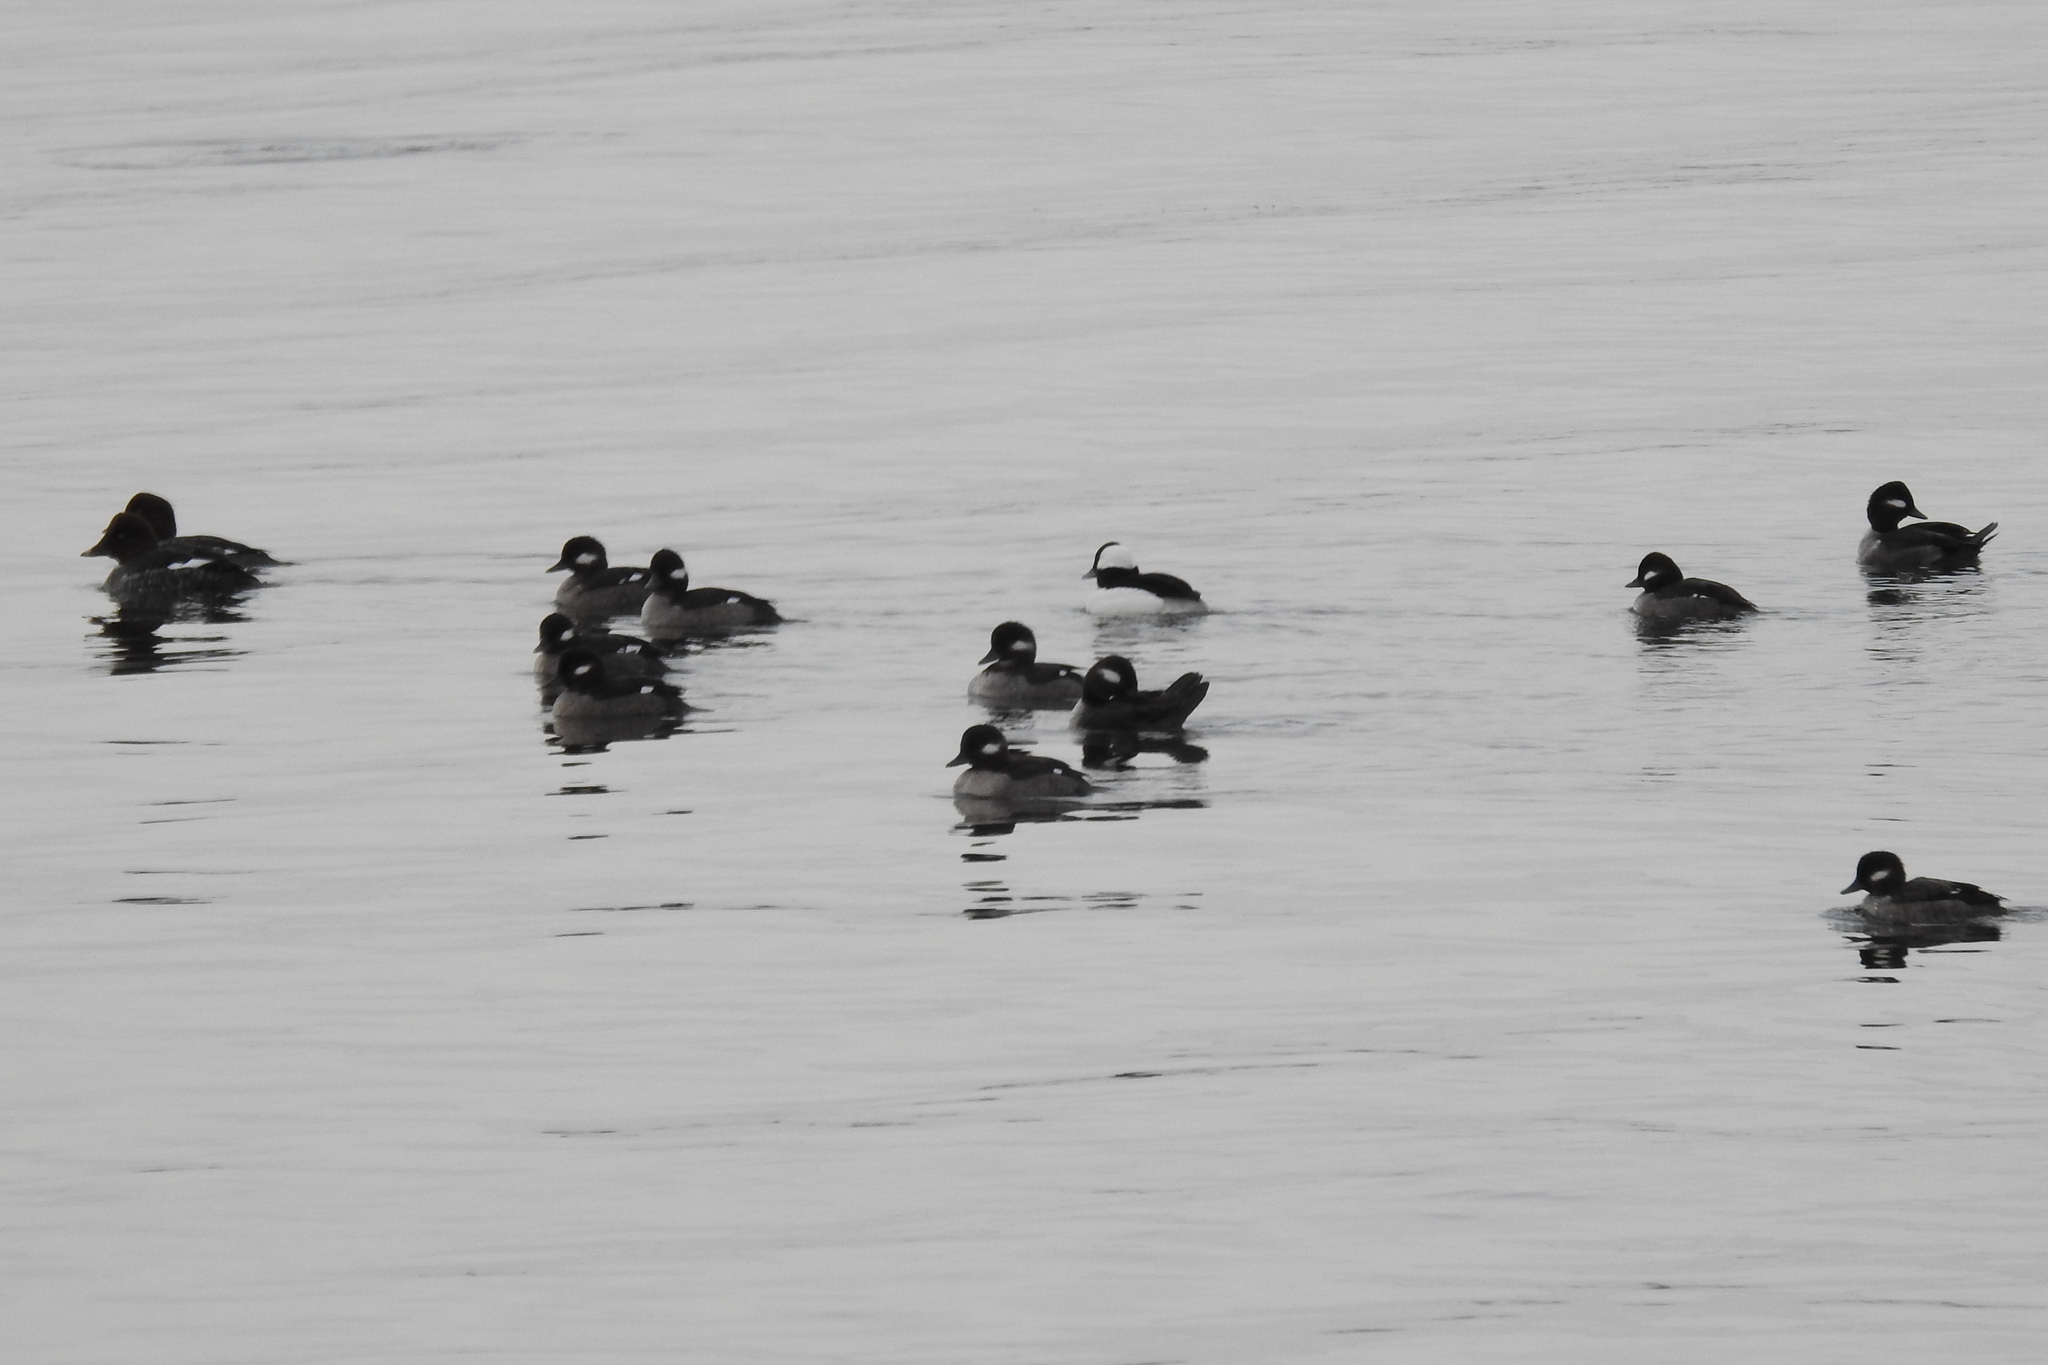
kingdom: Animalia
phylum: Chordata
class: Aves
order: Anseriformes
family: Anatidae
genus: Bucephala
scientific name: Bucephala albeola
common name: Bufflehead
